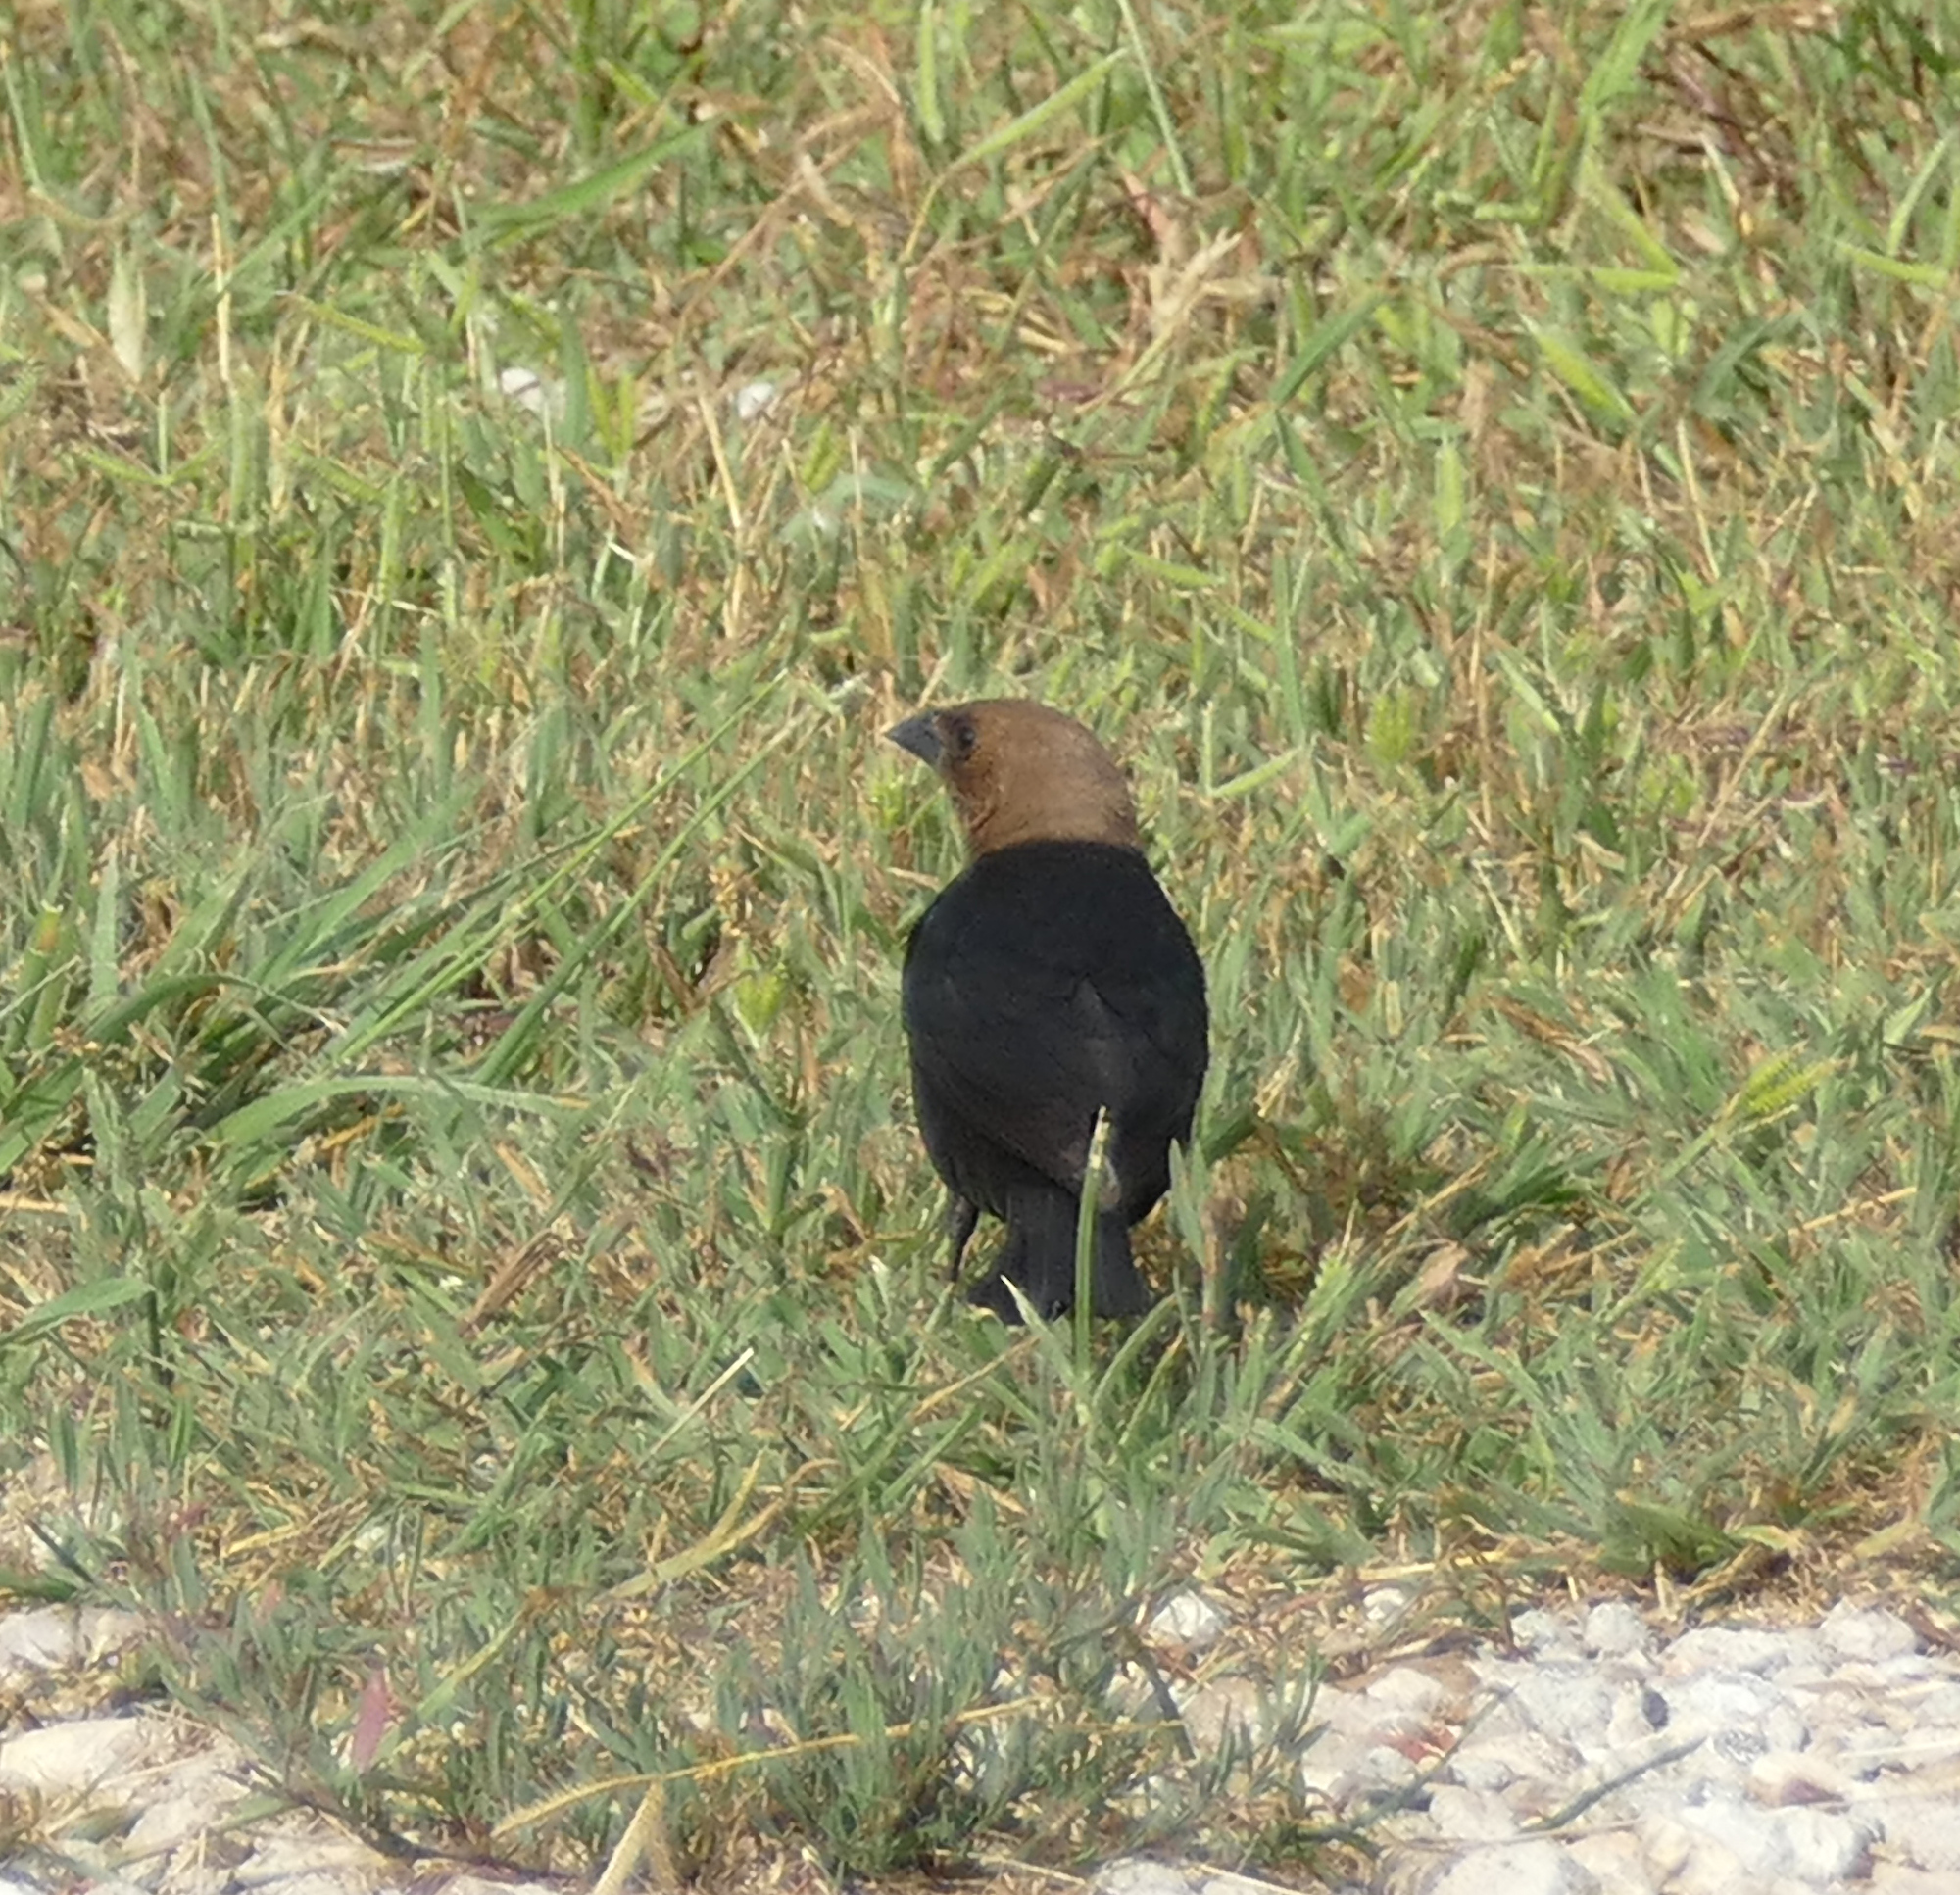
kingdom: Animalia
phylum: Chordata
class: Aves
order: Passeriformes
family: Icteridae
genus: Molothrus
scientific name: Molothrus ater
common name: Brown-headed cowbird
